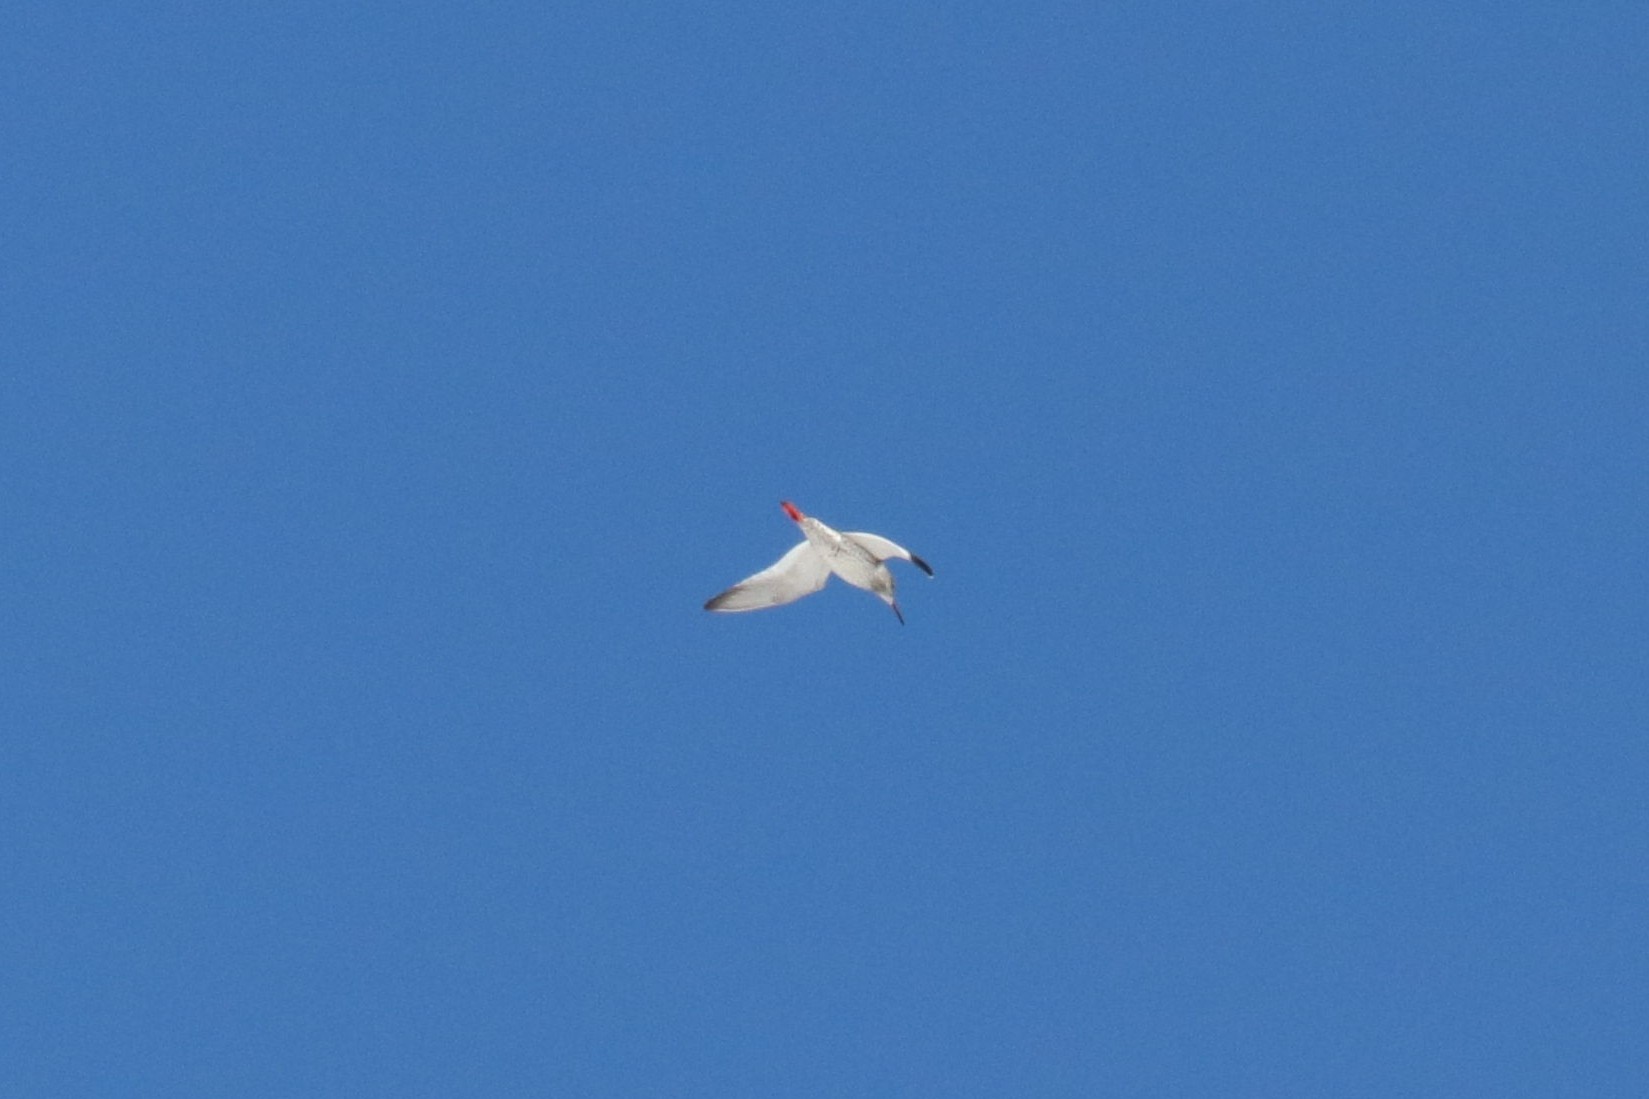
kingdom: Animalia
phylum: Chordata
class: Aves
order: Charadriiformes
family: Scolopacidae
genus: Tringa
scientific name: Tringa totanus
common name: Common redshank
